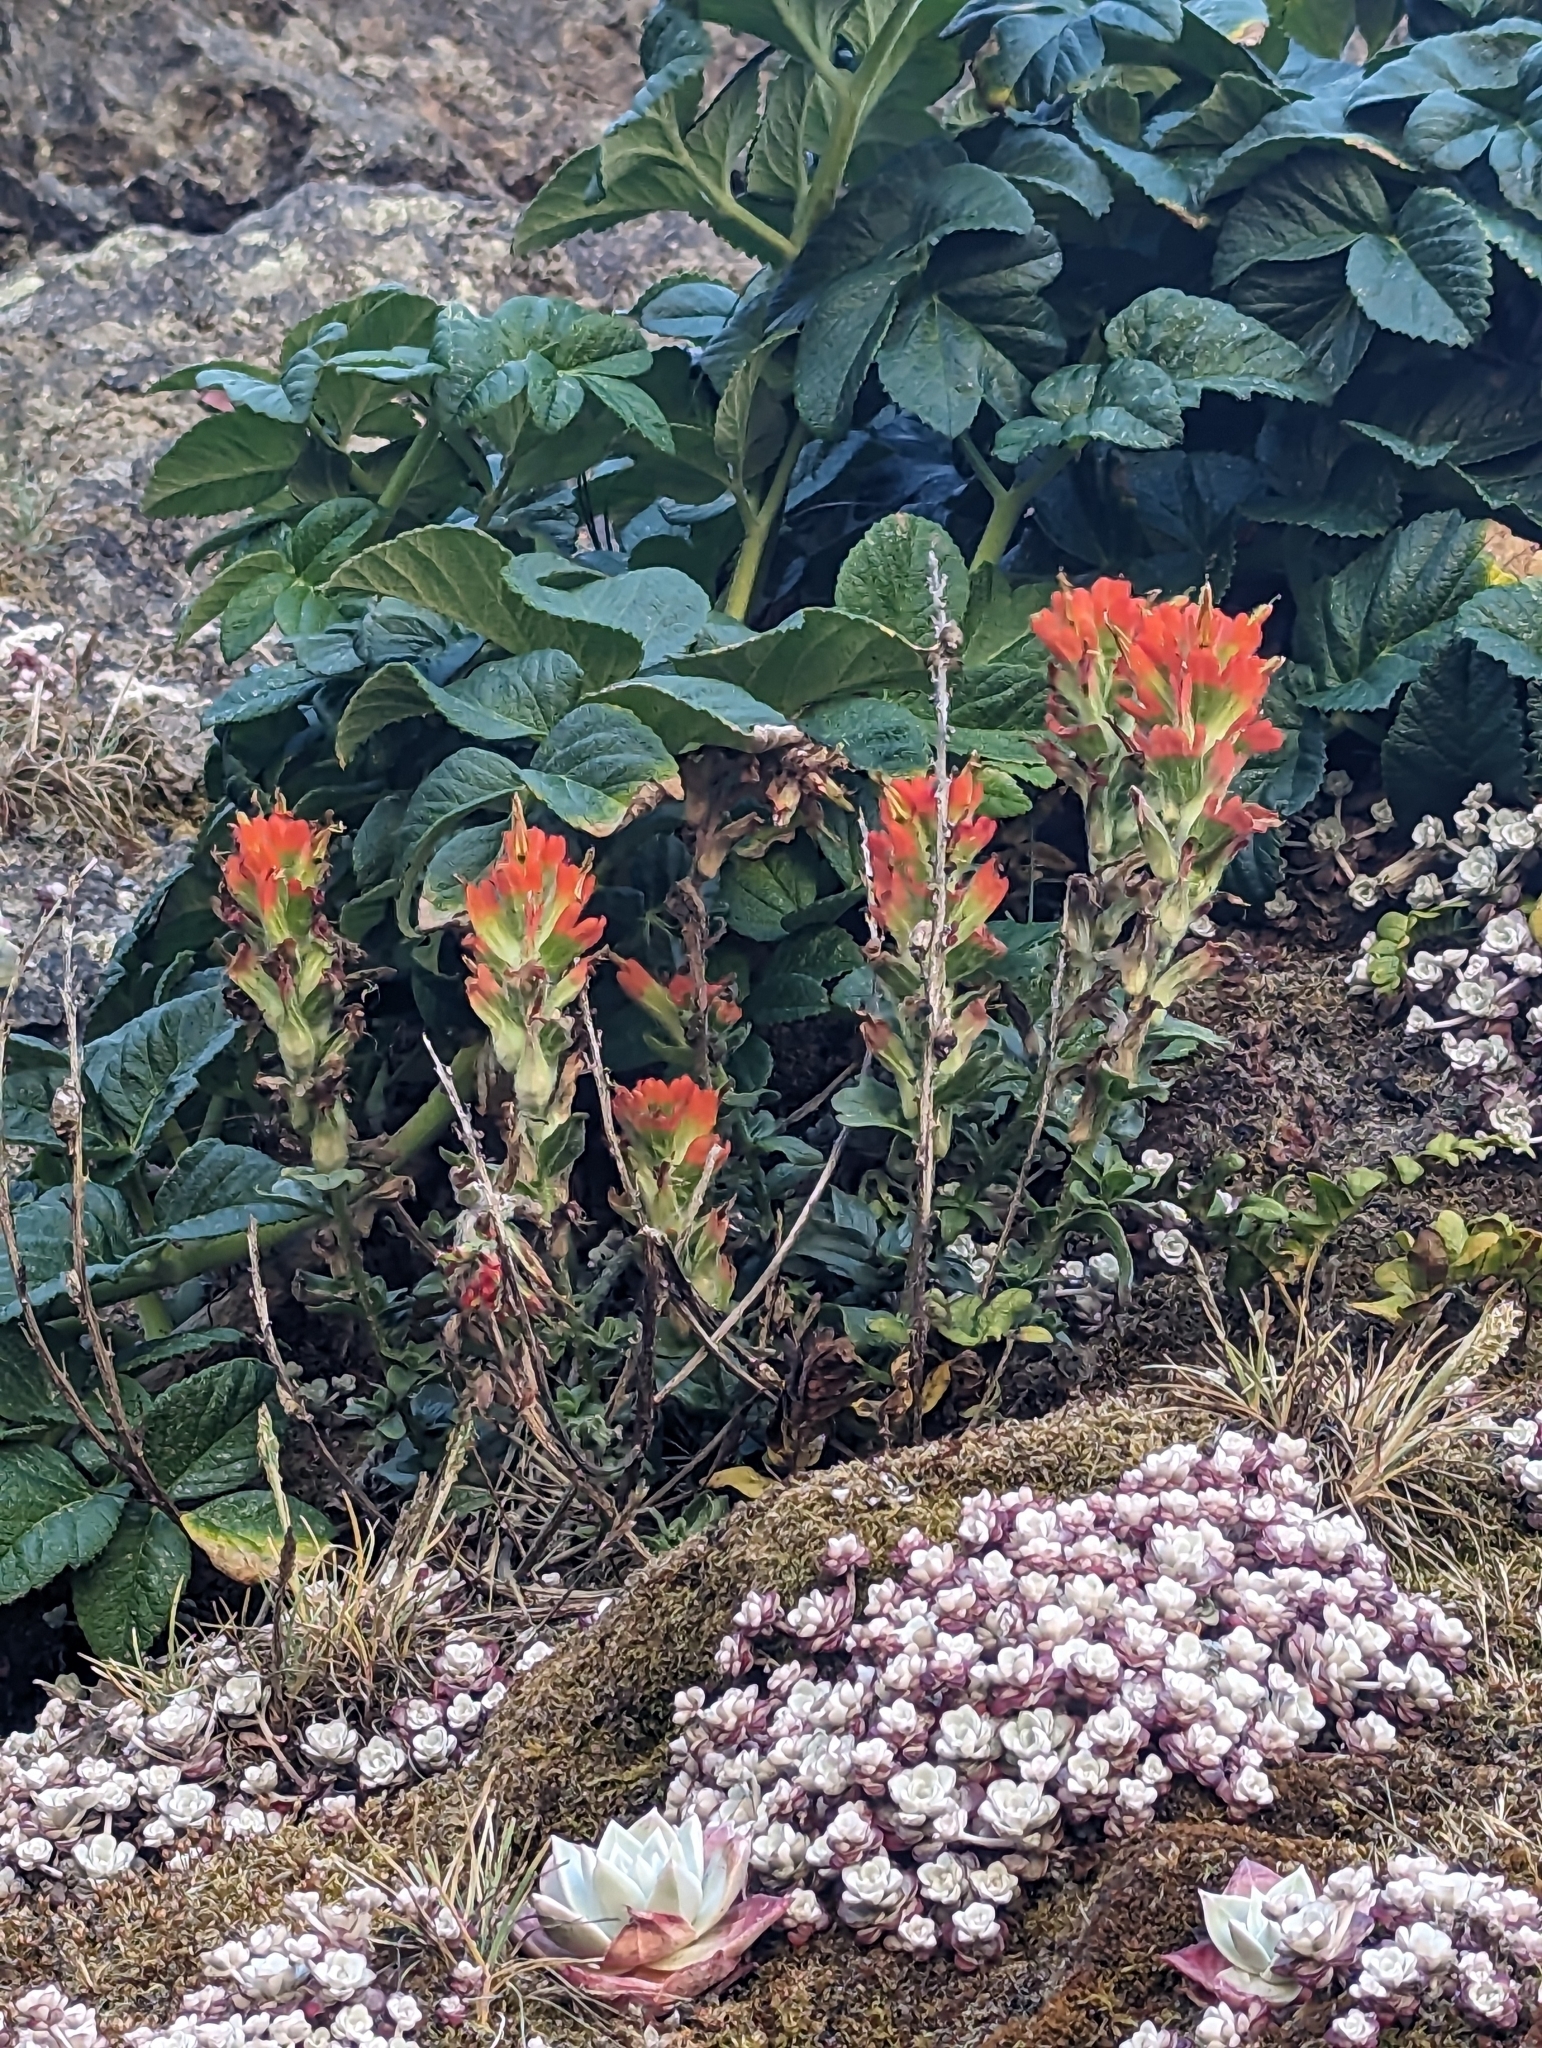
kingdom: Plantae
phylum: Tracheophyta
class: Magnoliopsida
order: Lamiales
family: Orobanchaceae
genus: Castilleja
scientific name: Castilleja litoralis
